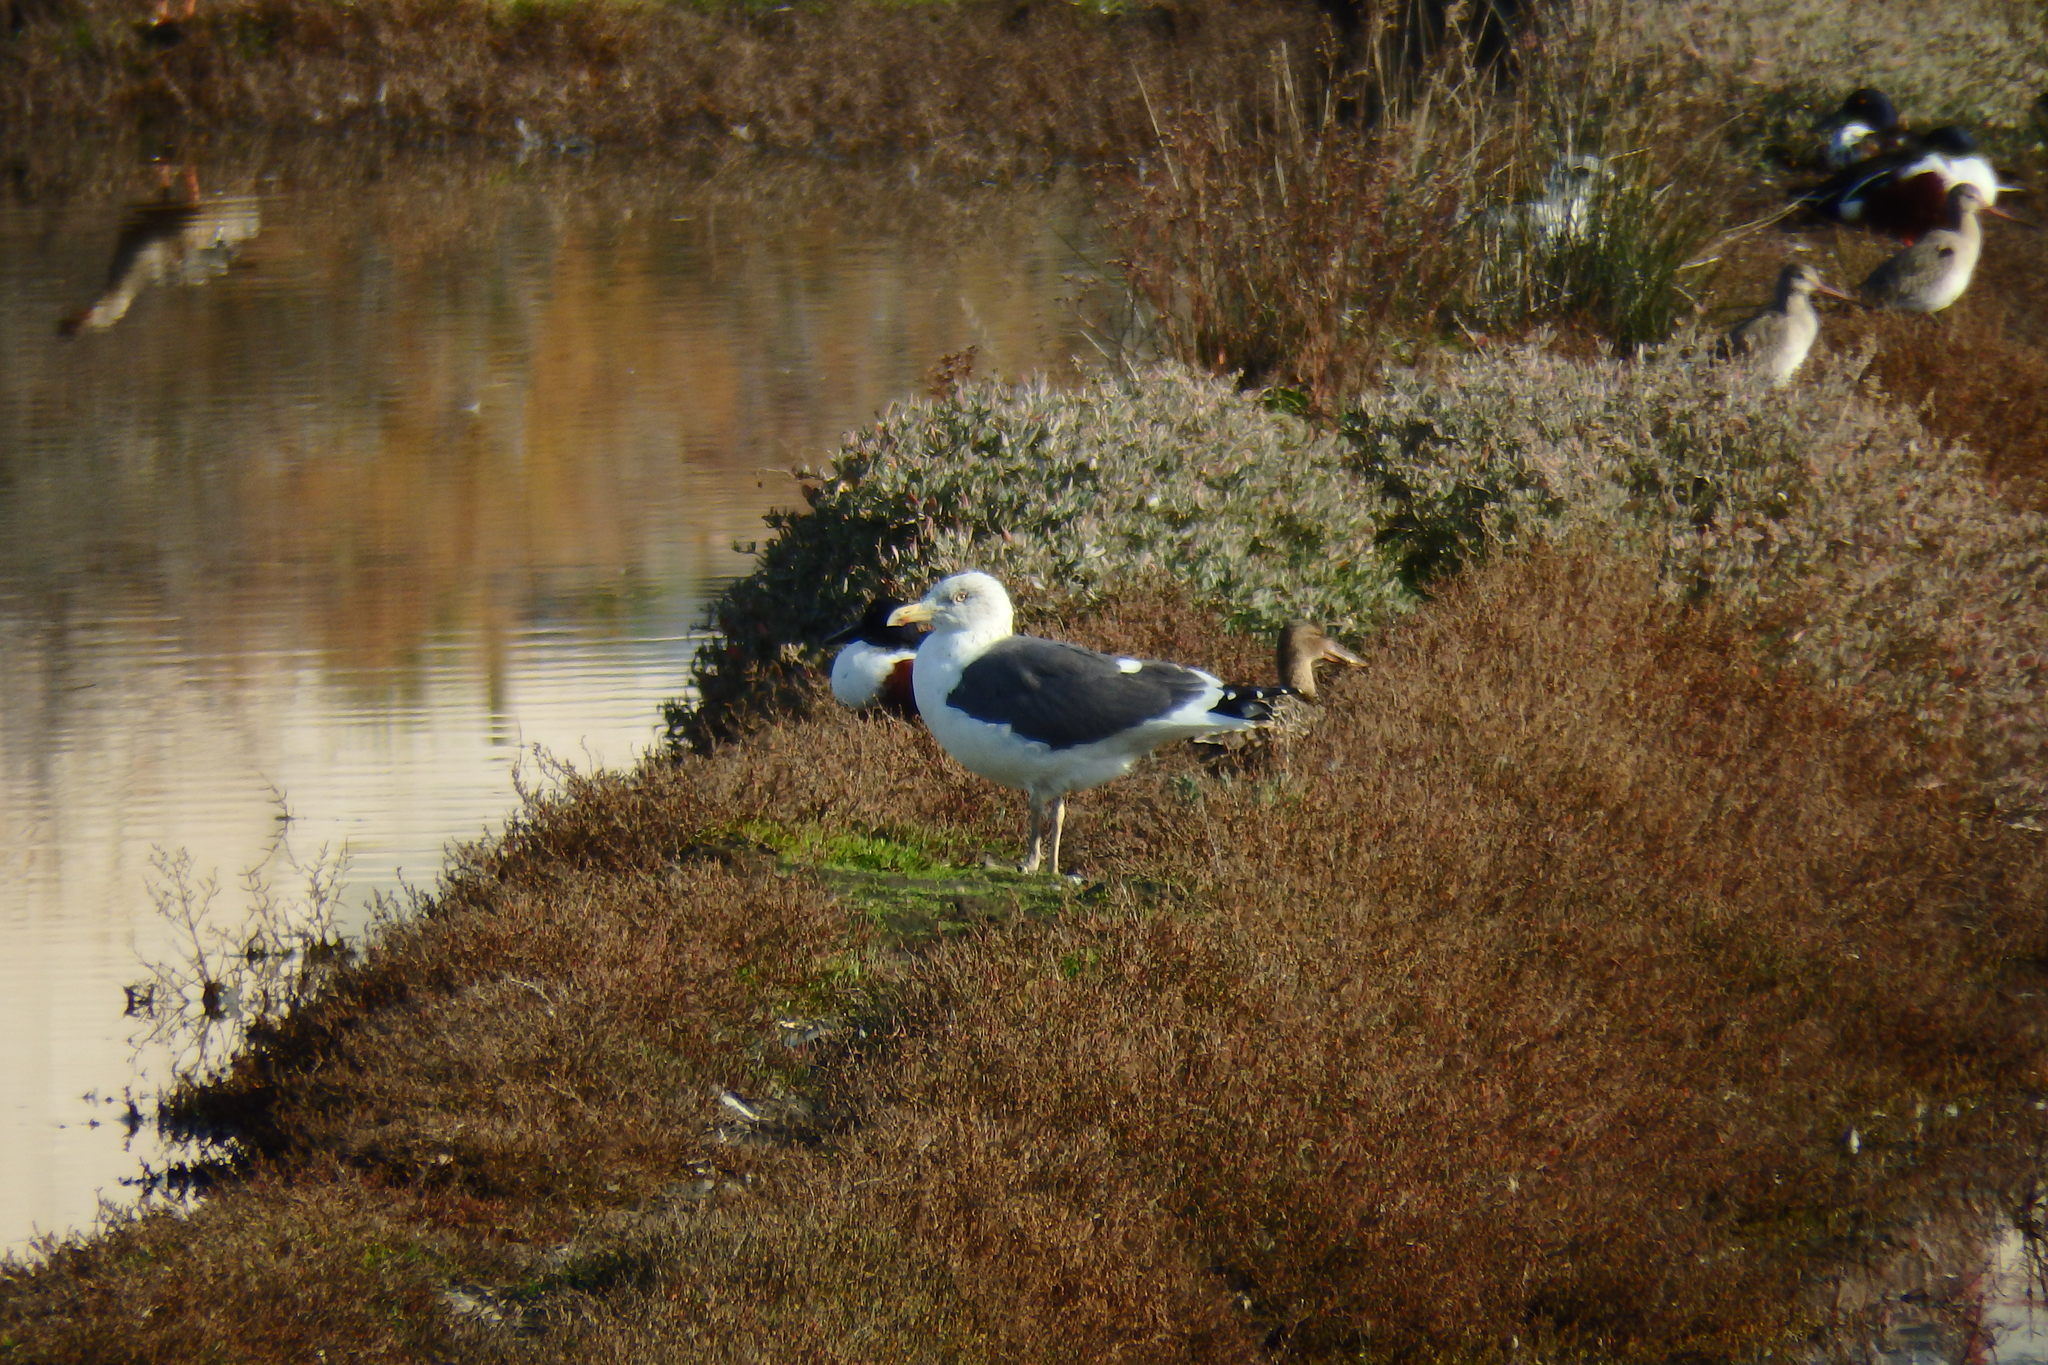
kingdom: Animalia
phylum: Chordata
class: Aves
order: Charadriiformes
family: Laridae
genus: Larus
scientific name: Larus fuscus
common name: Lesser black-backed gull
